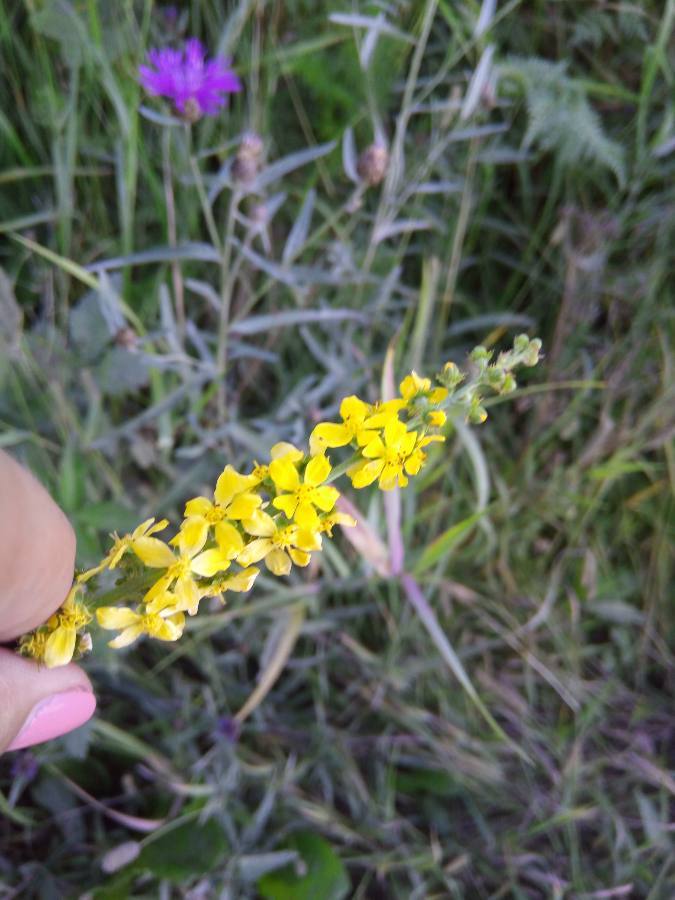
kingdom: Plantae
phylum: Tracheophyta
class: Magnoliopsida
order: Rosales
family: Rosaceae
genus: Agrimonia
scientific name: Agrimonia
